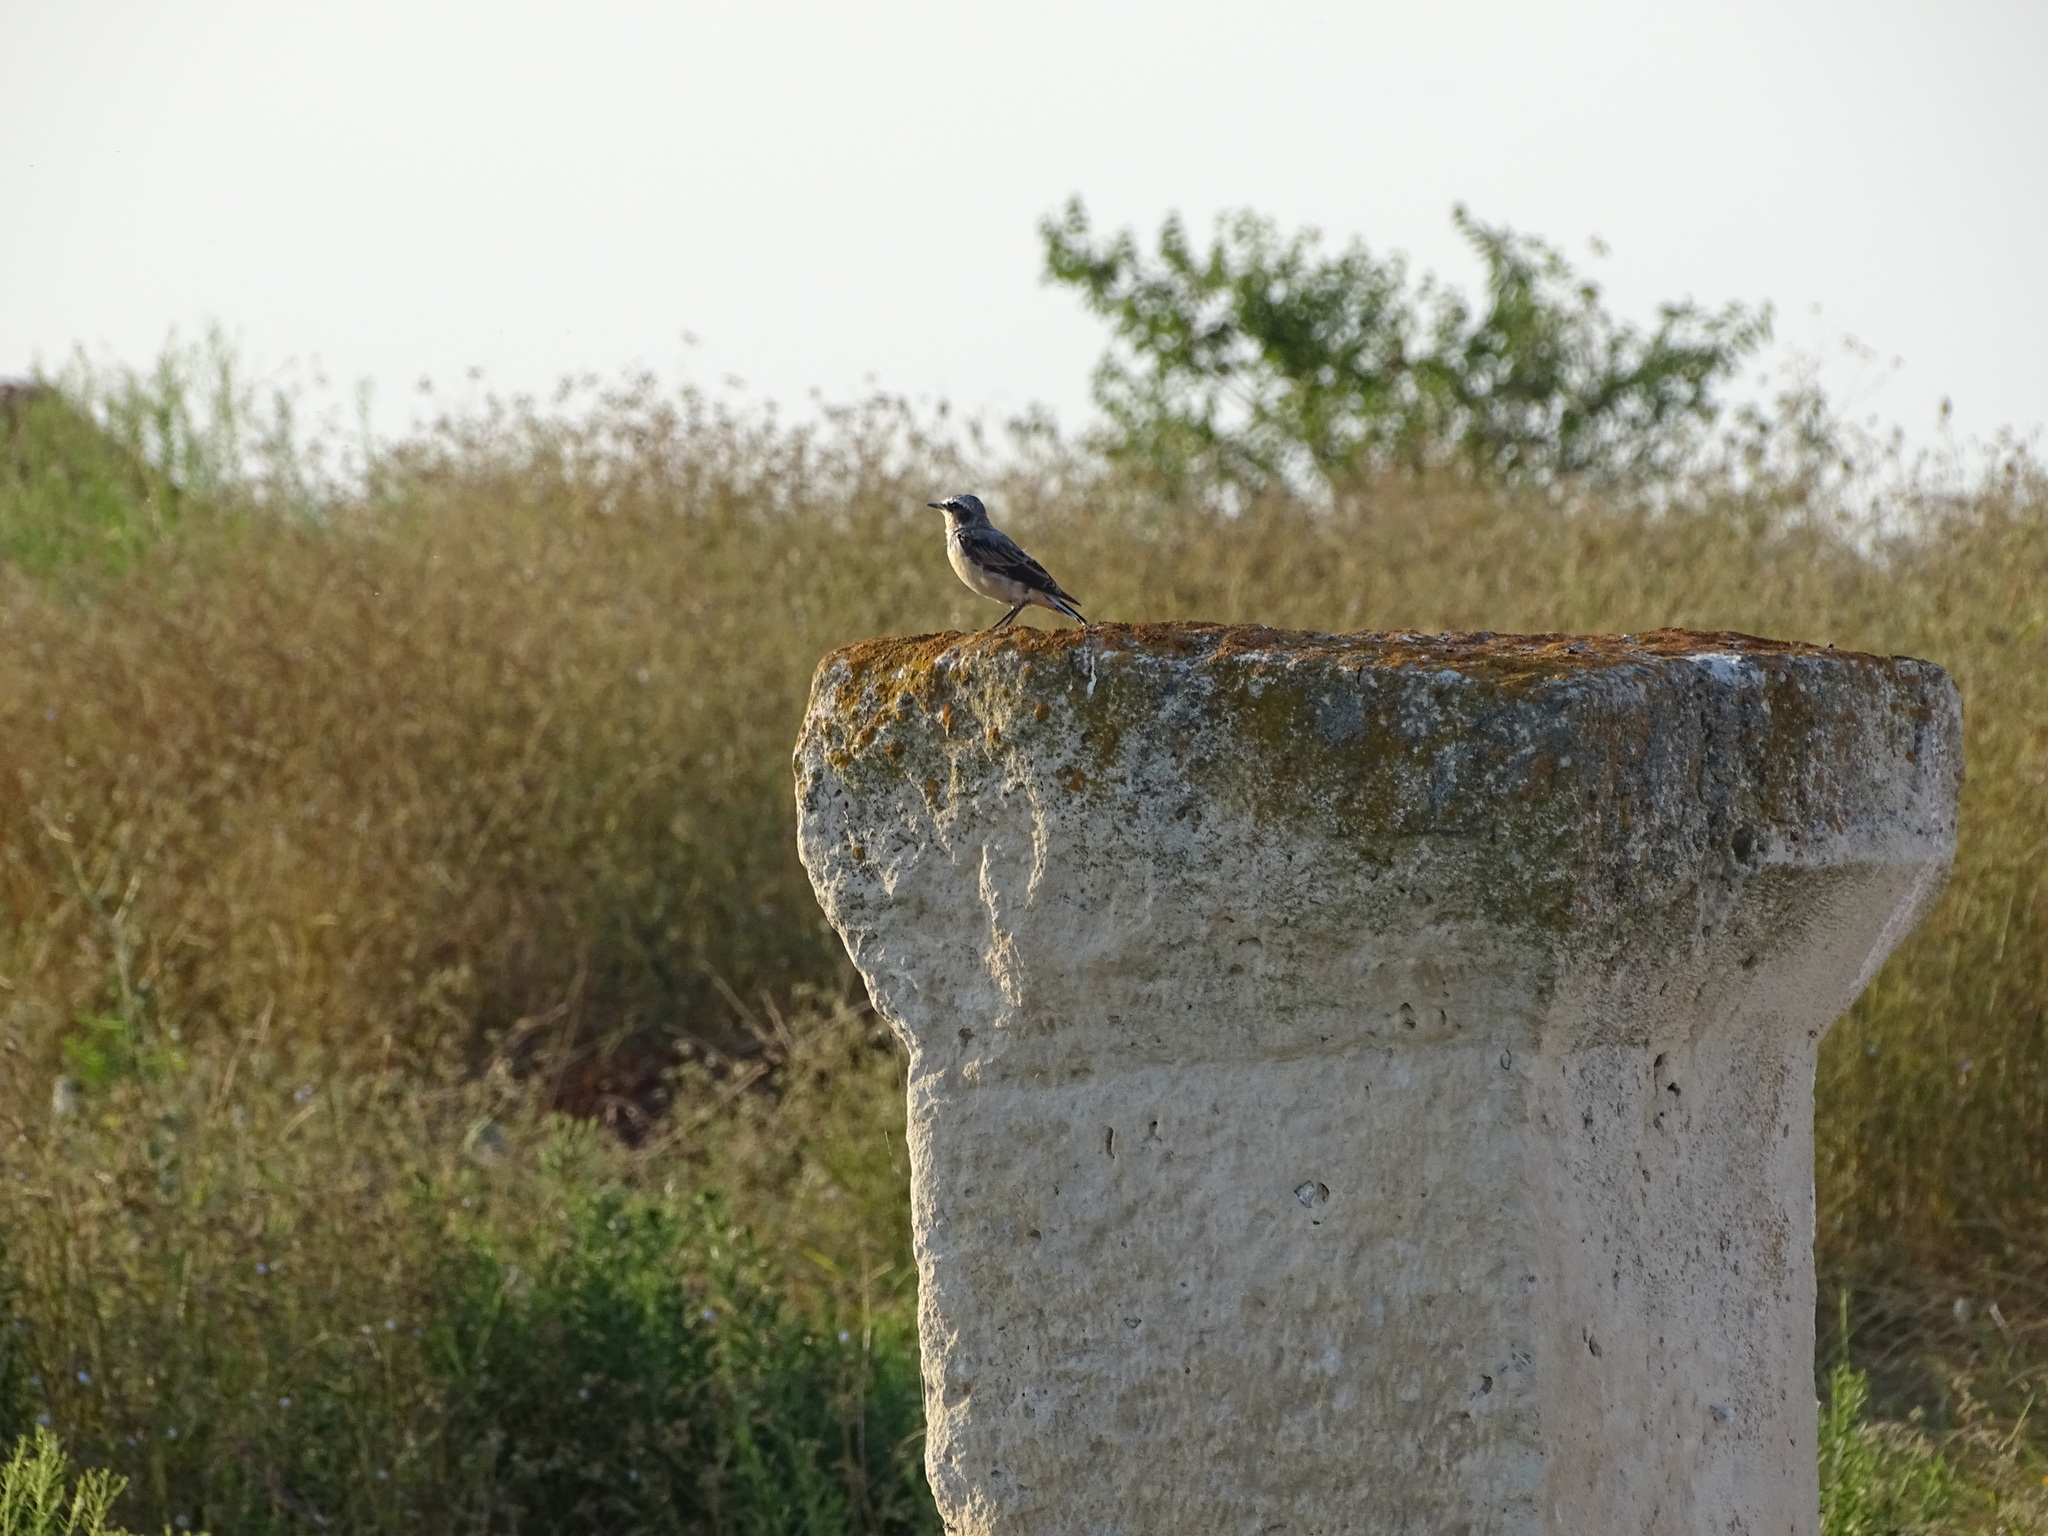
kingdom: Animalia
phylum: Chordata
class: Aves
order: Passeriformes
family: Muscicapidae
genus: Oenanthe
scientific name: Oenanthe oenanthe
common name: Northern wheatear
